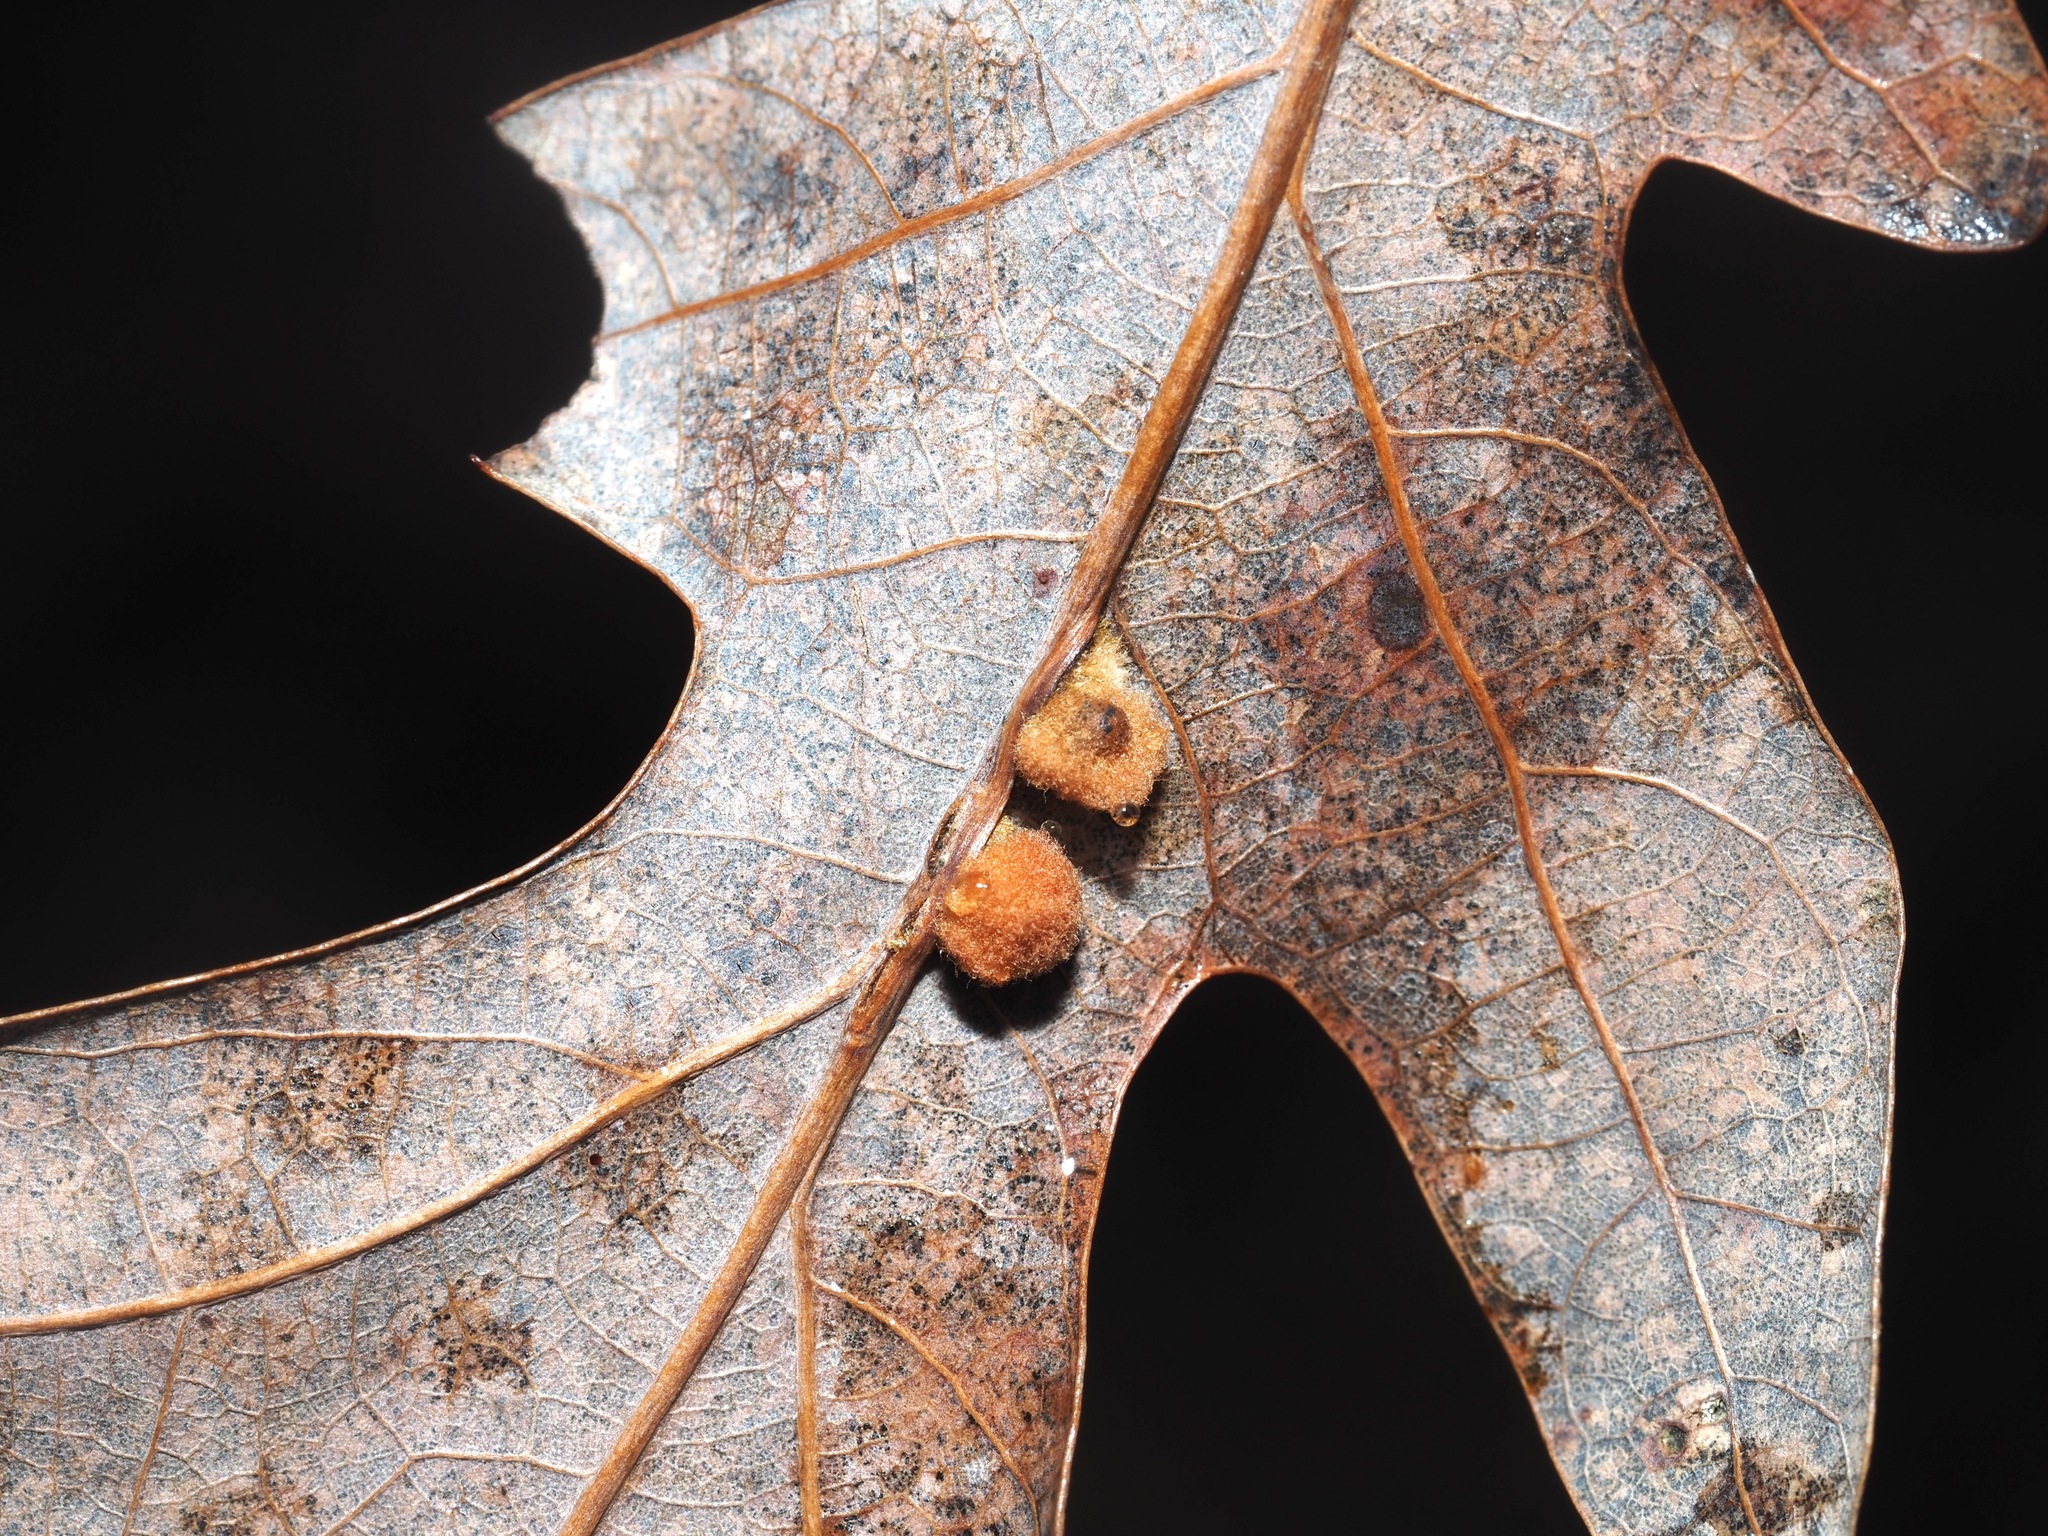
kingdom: Animalia
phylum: Arthropoda
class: Insecta
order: Hymenoptera
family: Cynipidae
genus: Andricus
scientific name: Andricus quercusflocci
